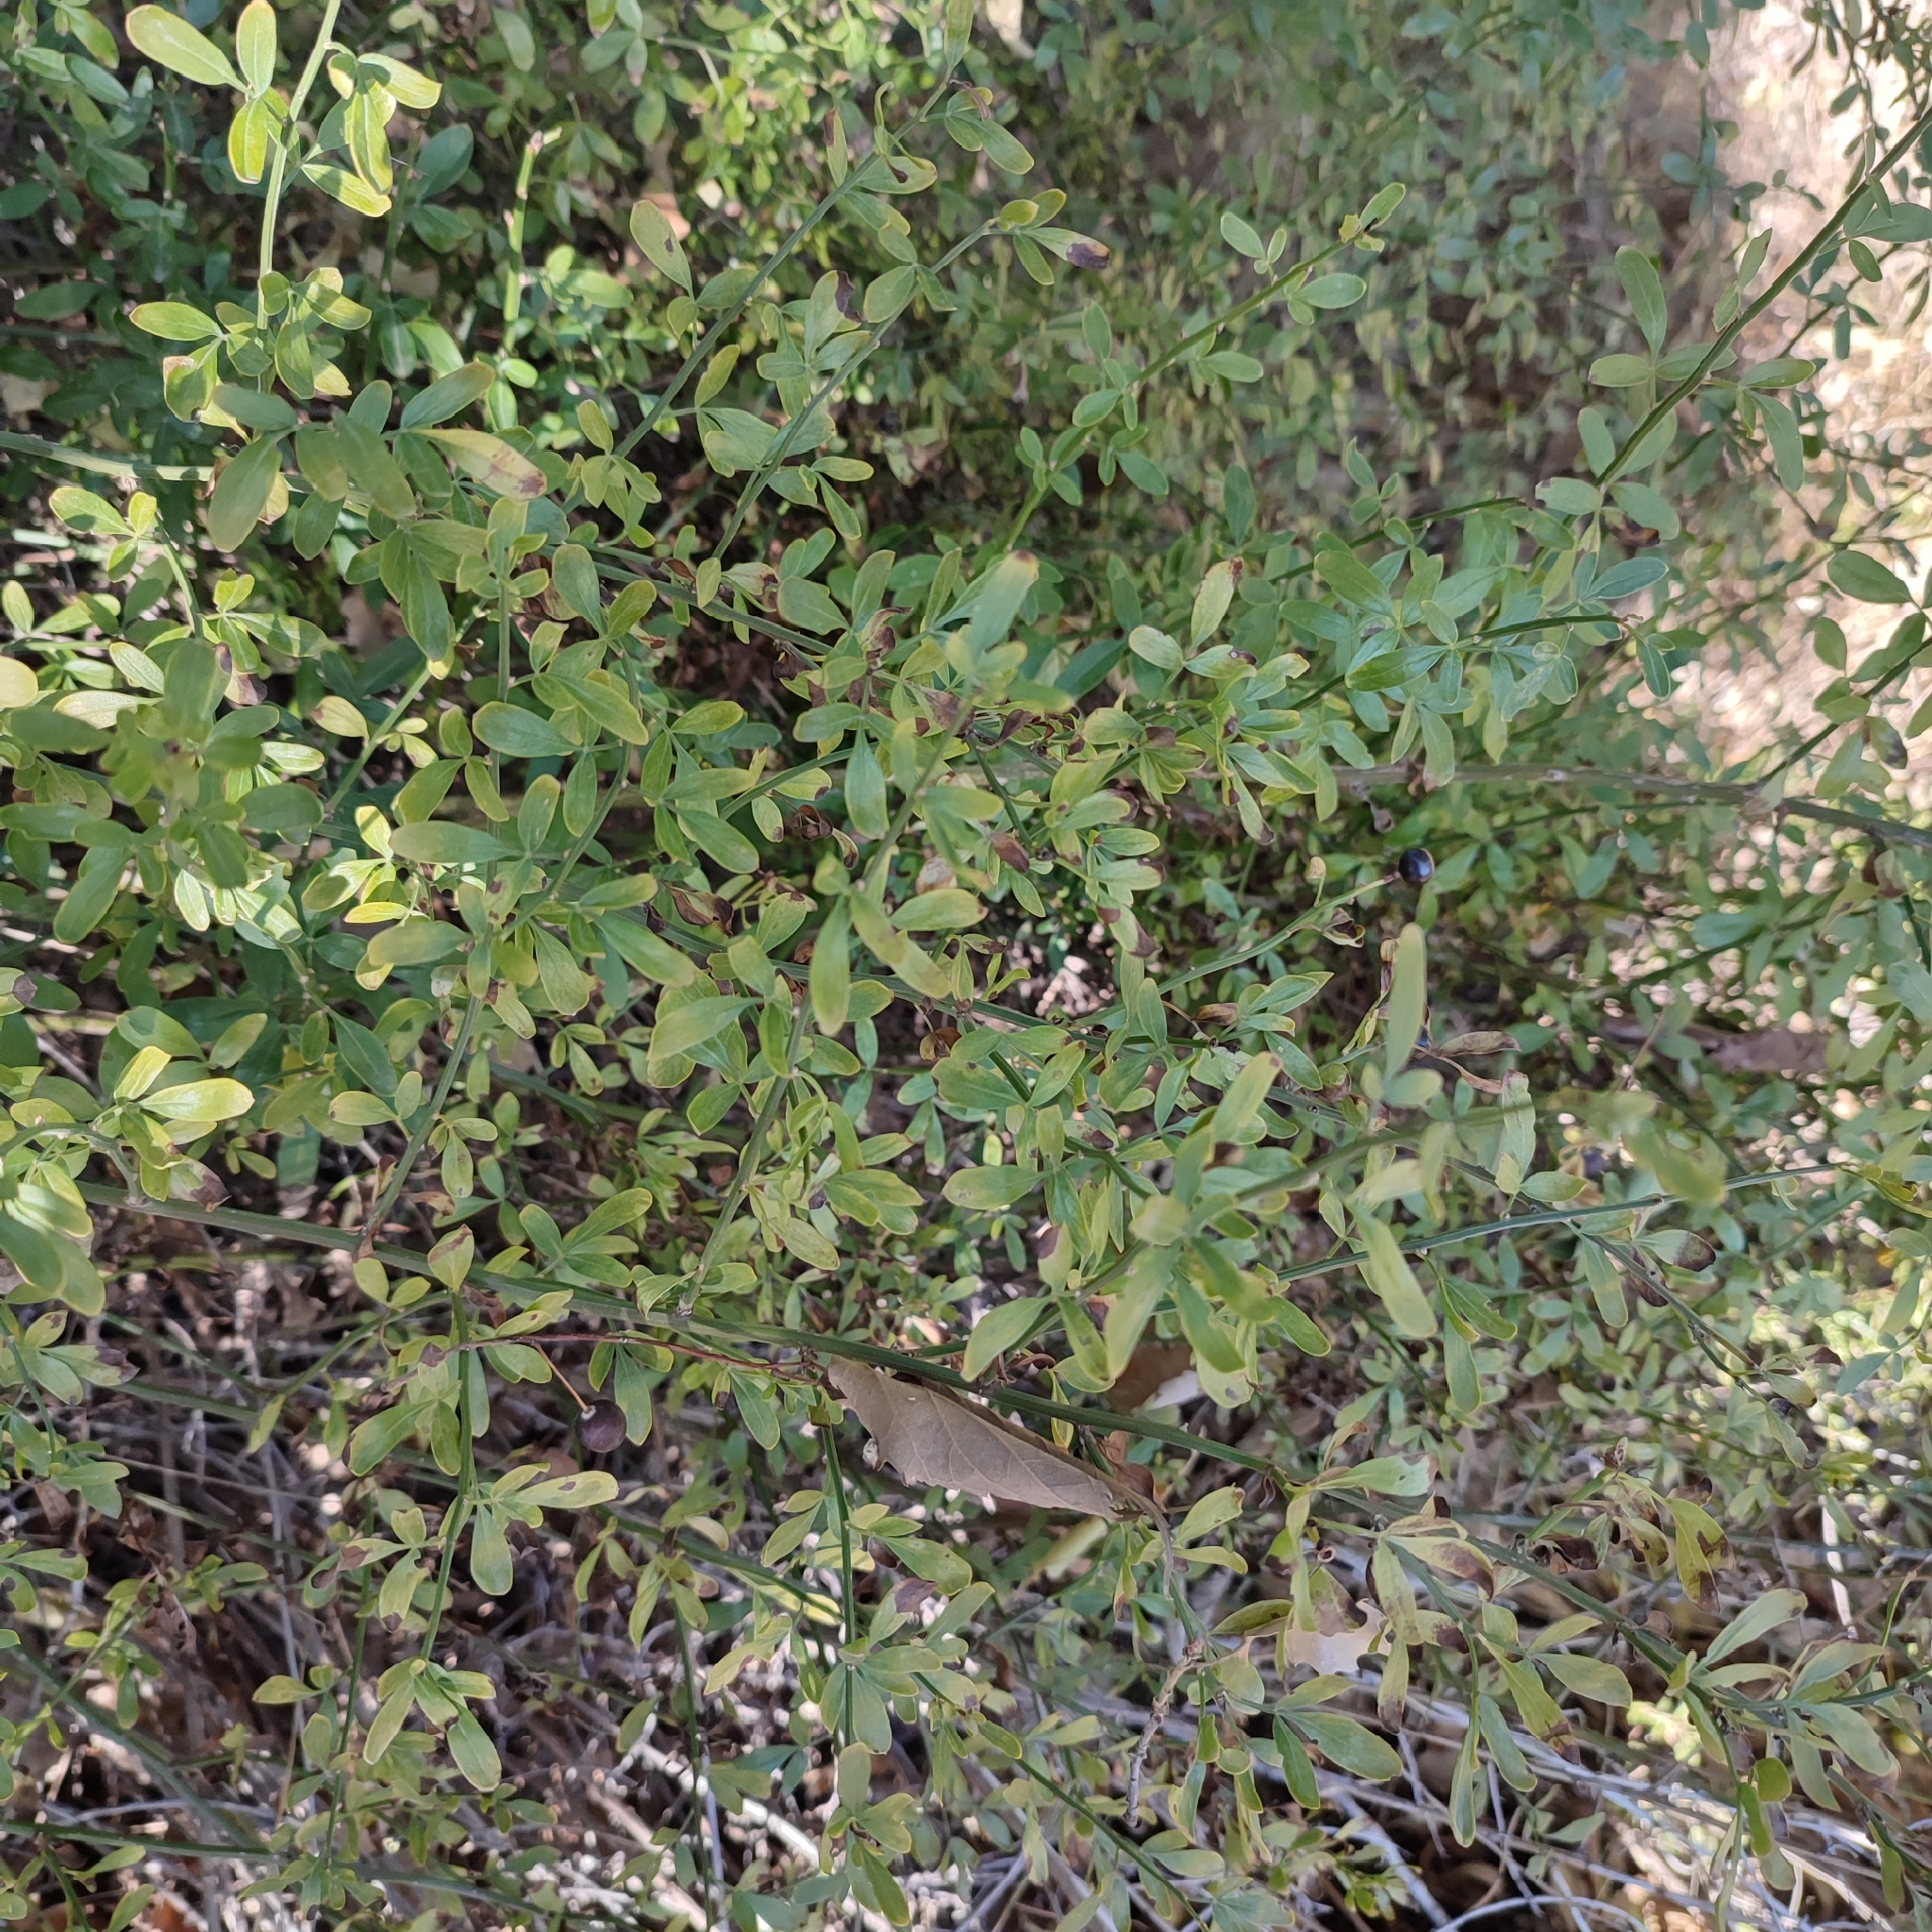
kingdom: Plantae
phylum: Tracheophyta
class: Magnoliopsida
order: Lamiales
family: Oleaceae
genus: Chrysojasminum
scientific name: Chrysojasminum fruticans
